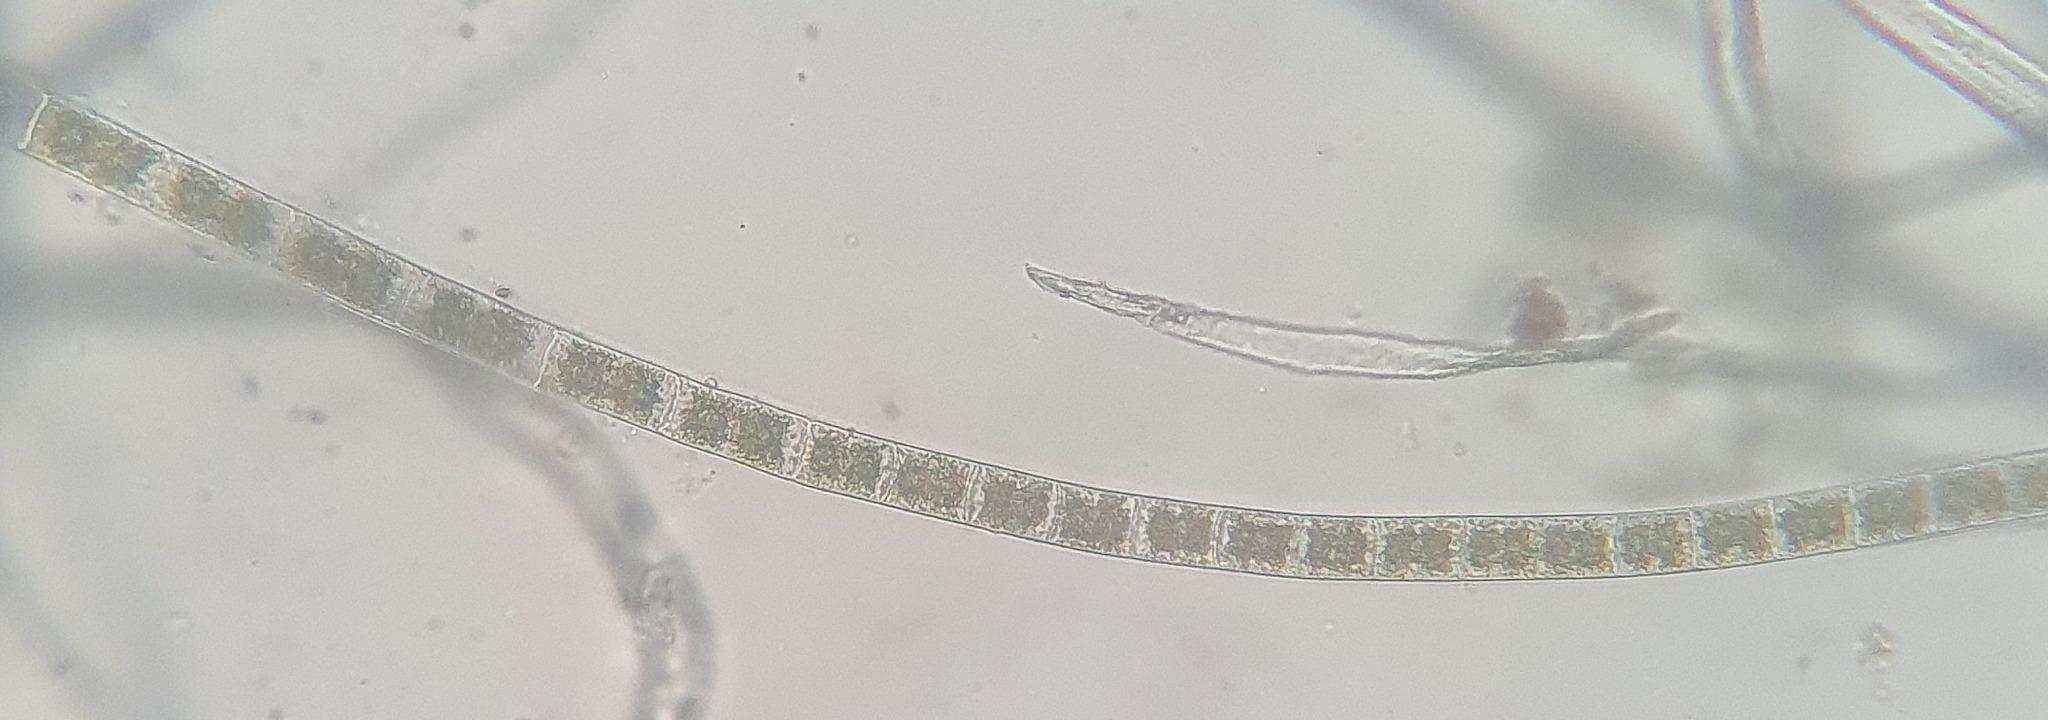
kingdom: Plantae
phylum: Charophyta
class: Zygnematophyceae
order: Zygnematales
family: Zygnemataceae
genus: Zygnema
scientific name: Zygnema
